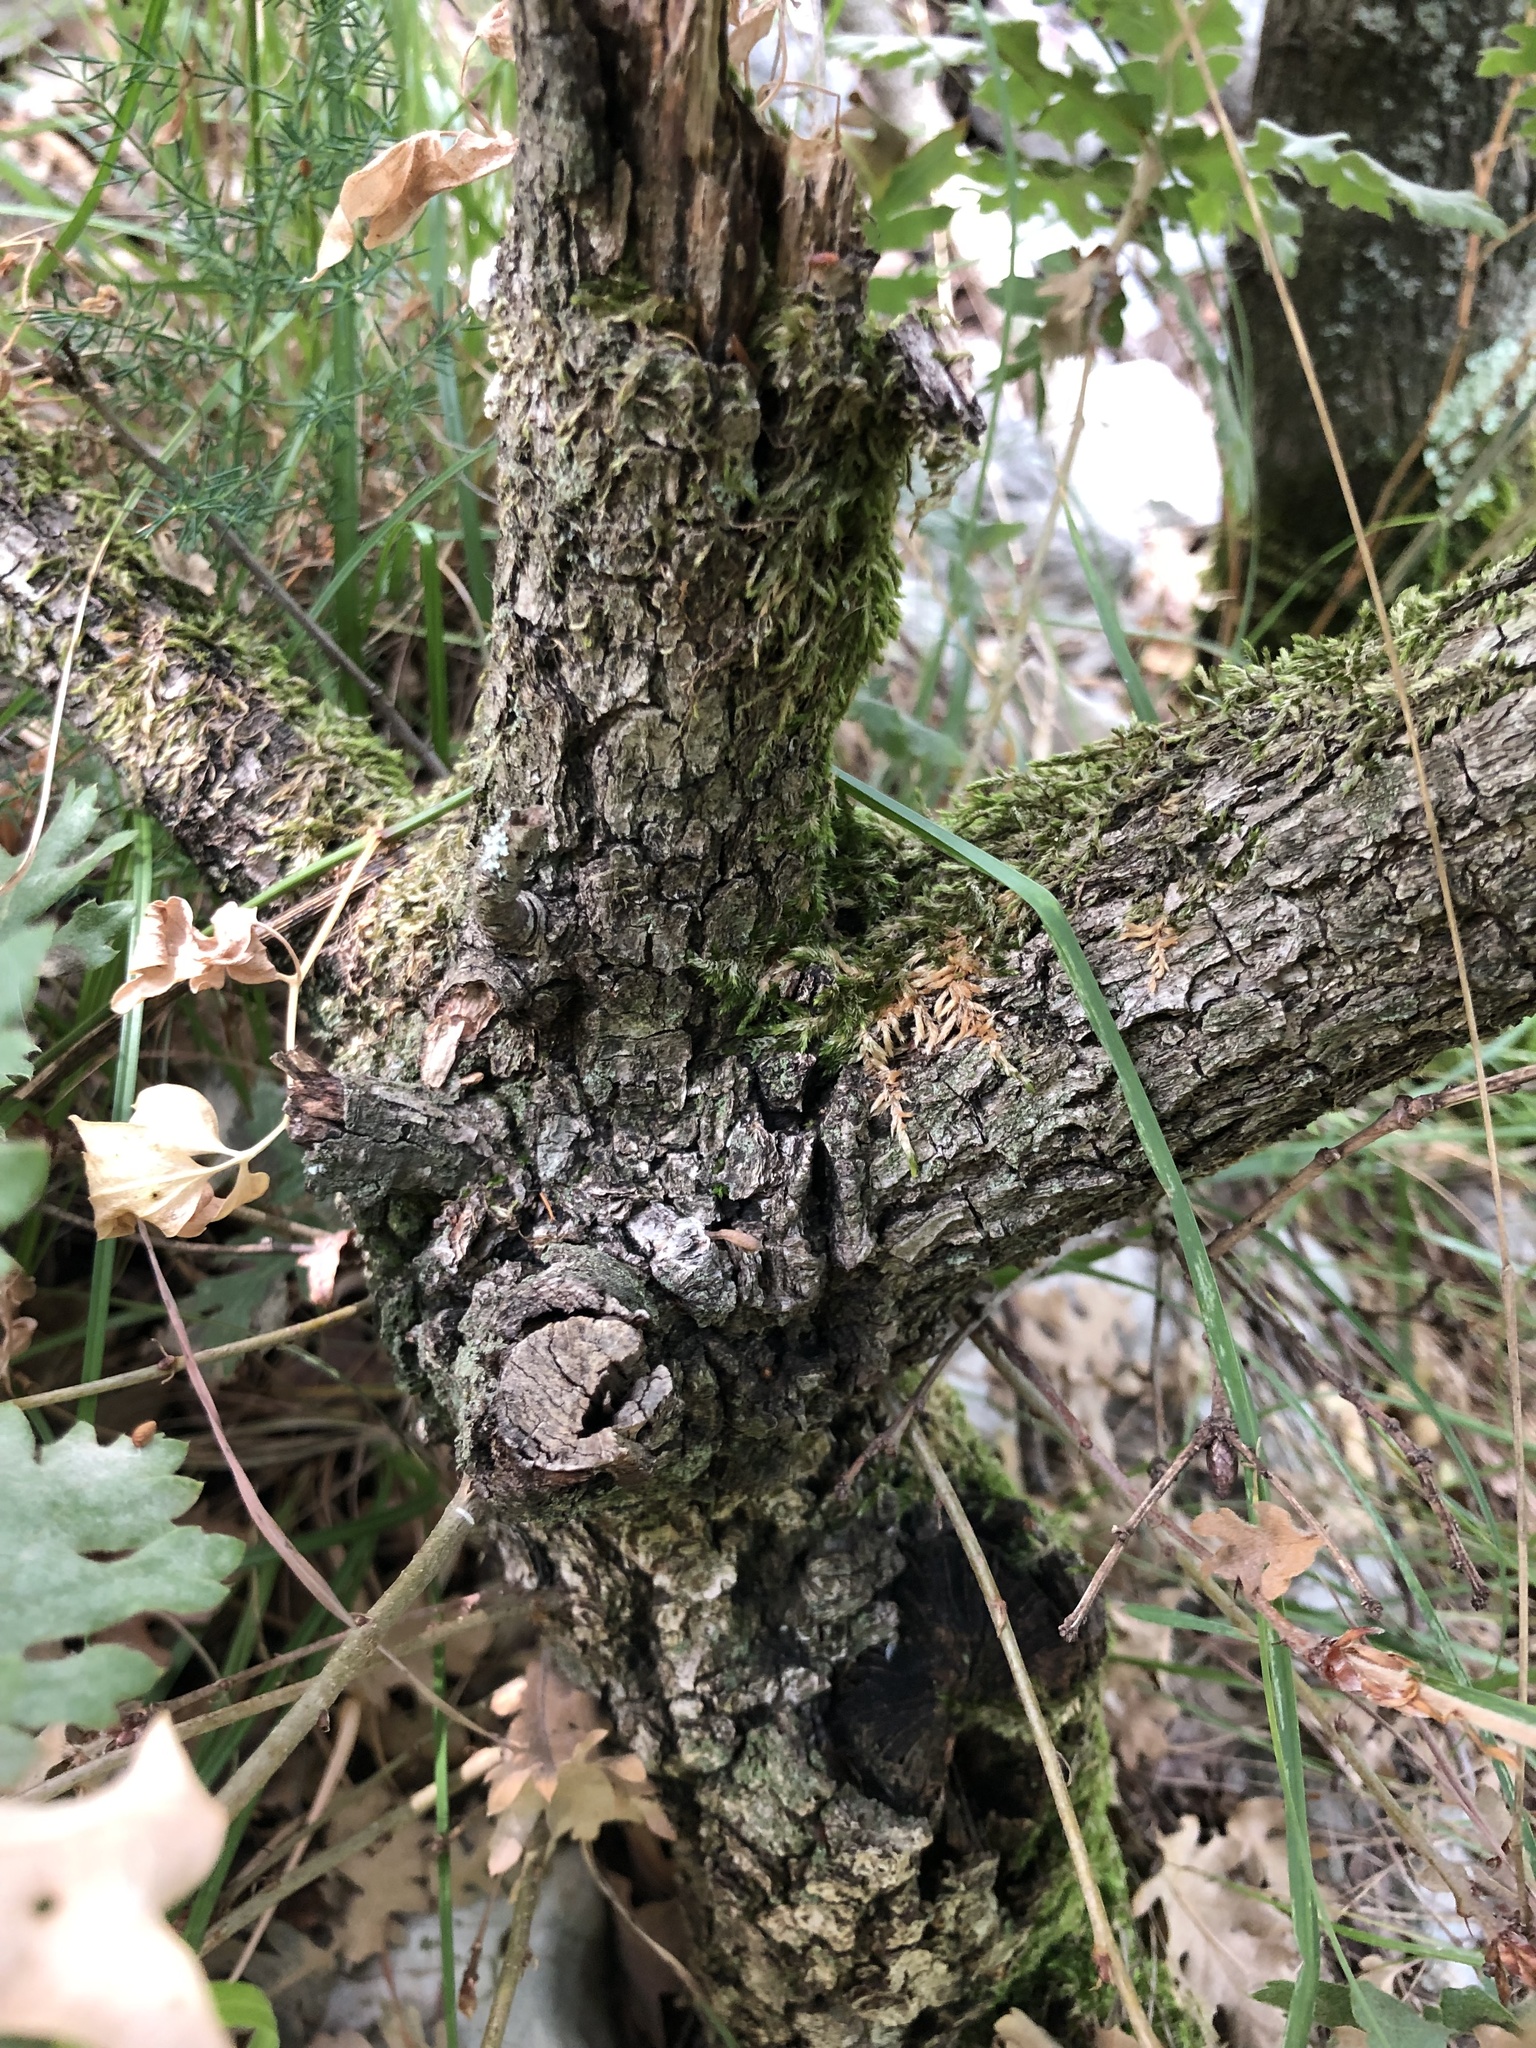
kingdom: Plantae
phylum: Tracheophyta
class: Magnoliopsida
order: Fagales
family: Fagaceae
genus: Quercus
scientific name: Quercus pubescens
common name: Downy oak
